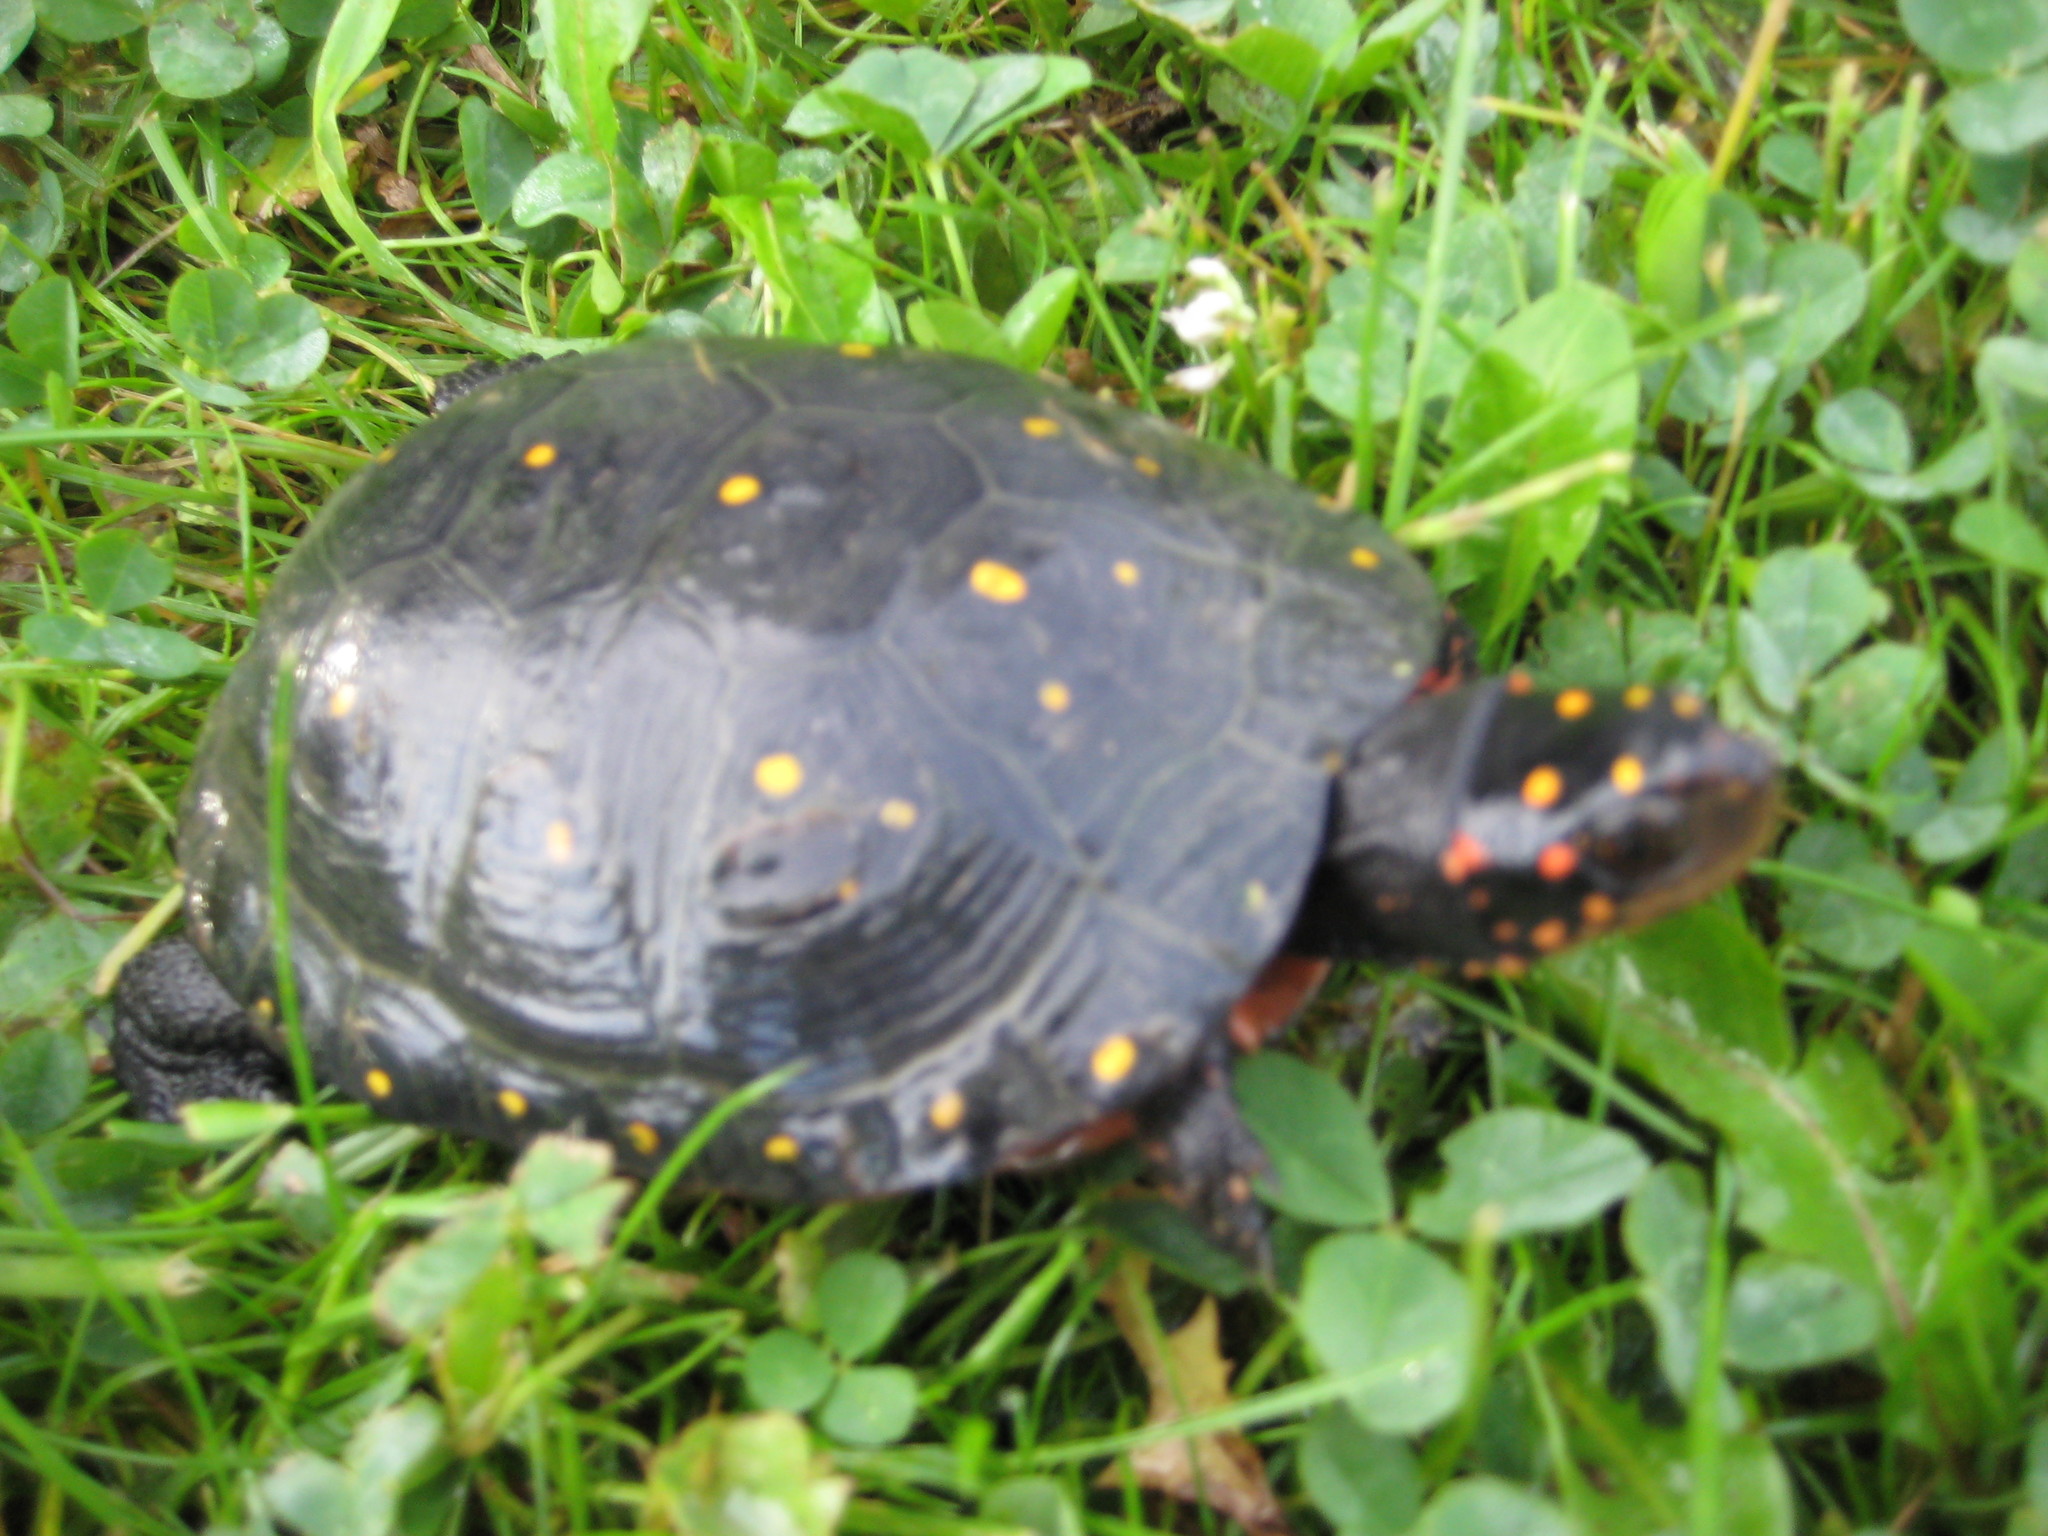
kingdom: Animalia
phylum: Chordata
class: Testudines
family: Emydidae
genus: Clemmys
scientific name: Clemmys guttata
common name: Spotted turtle
